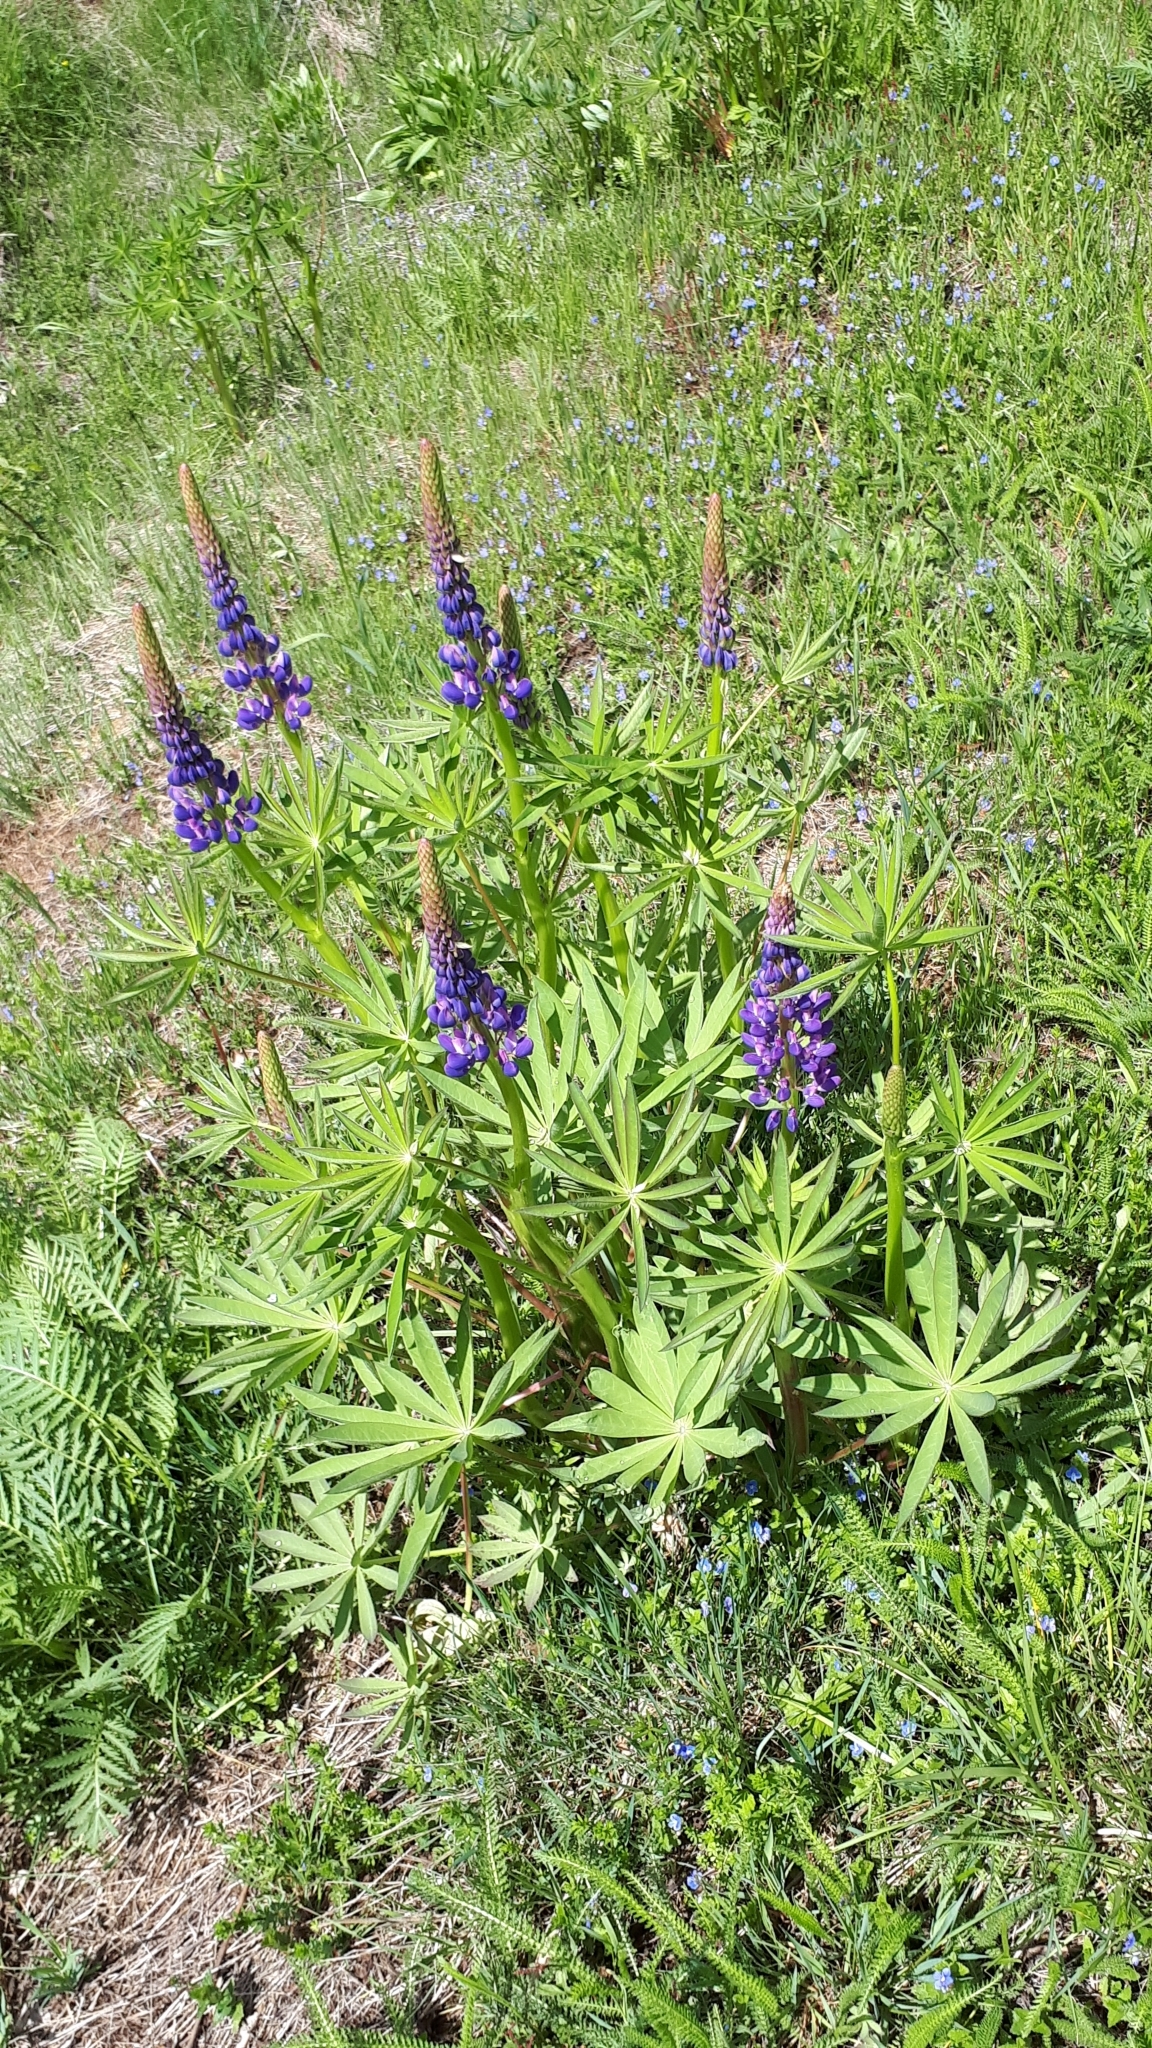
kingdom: Plantae
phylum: Tracheophyta
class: Magnoliopsida
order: Fabales
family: Fabaceae
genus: Lupinus
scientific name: Lupinus polyphyllus
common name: Garden lupin
